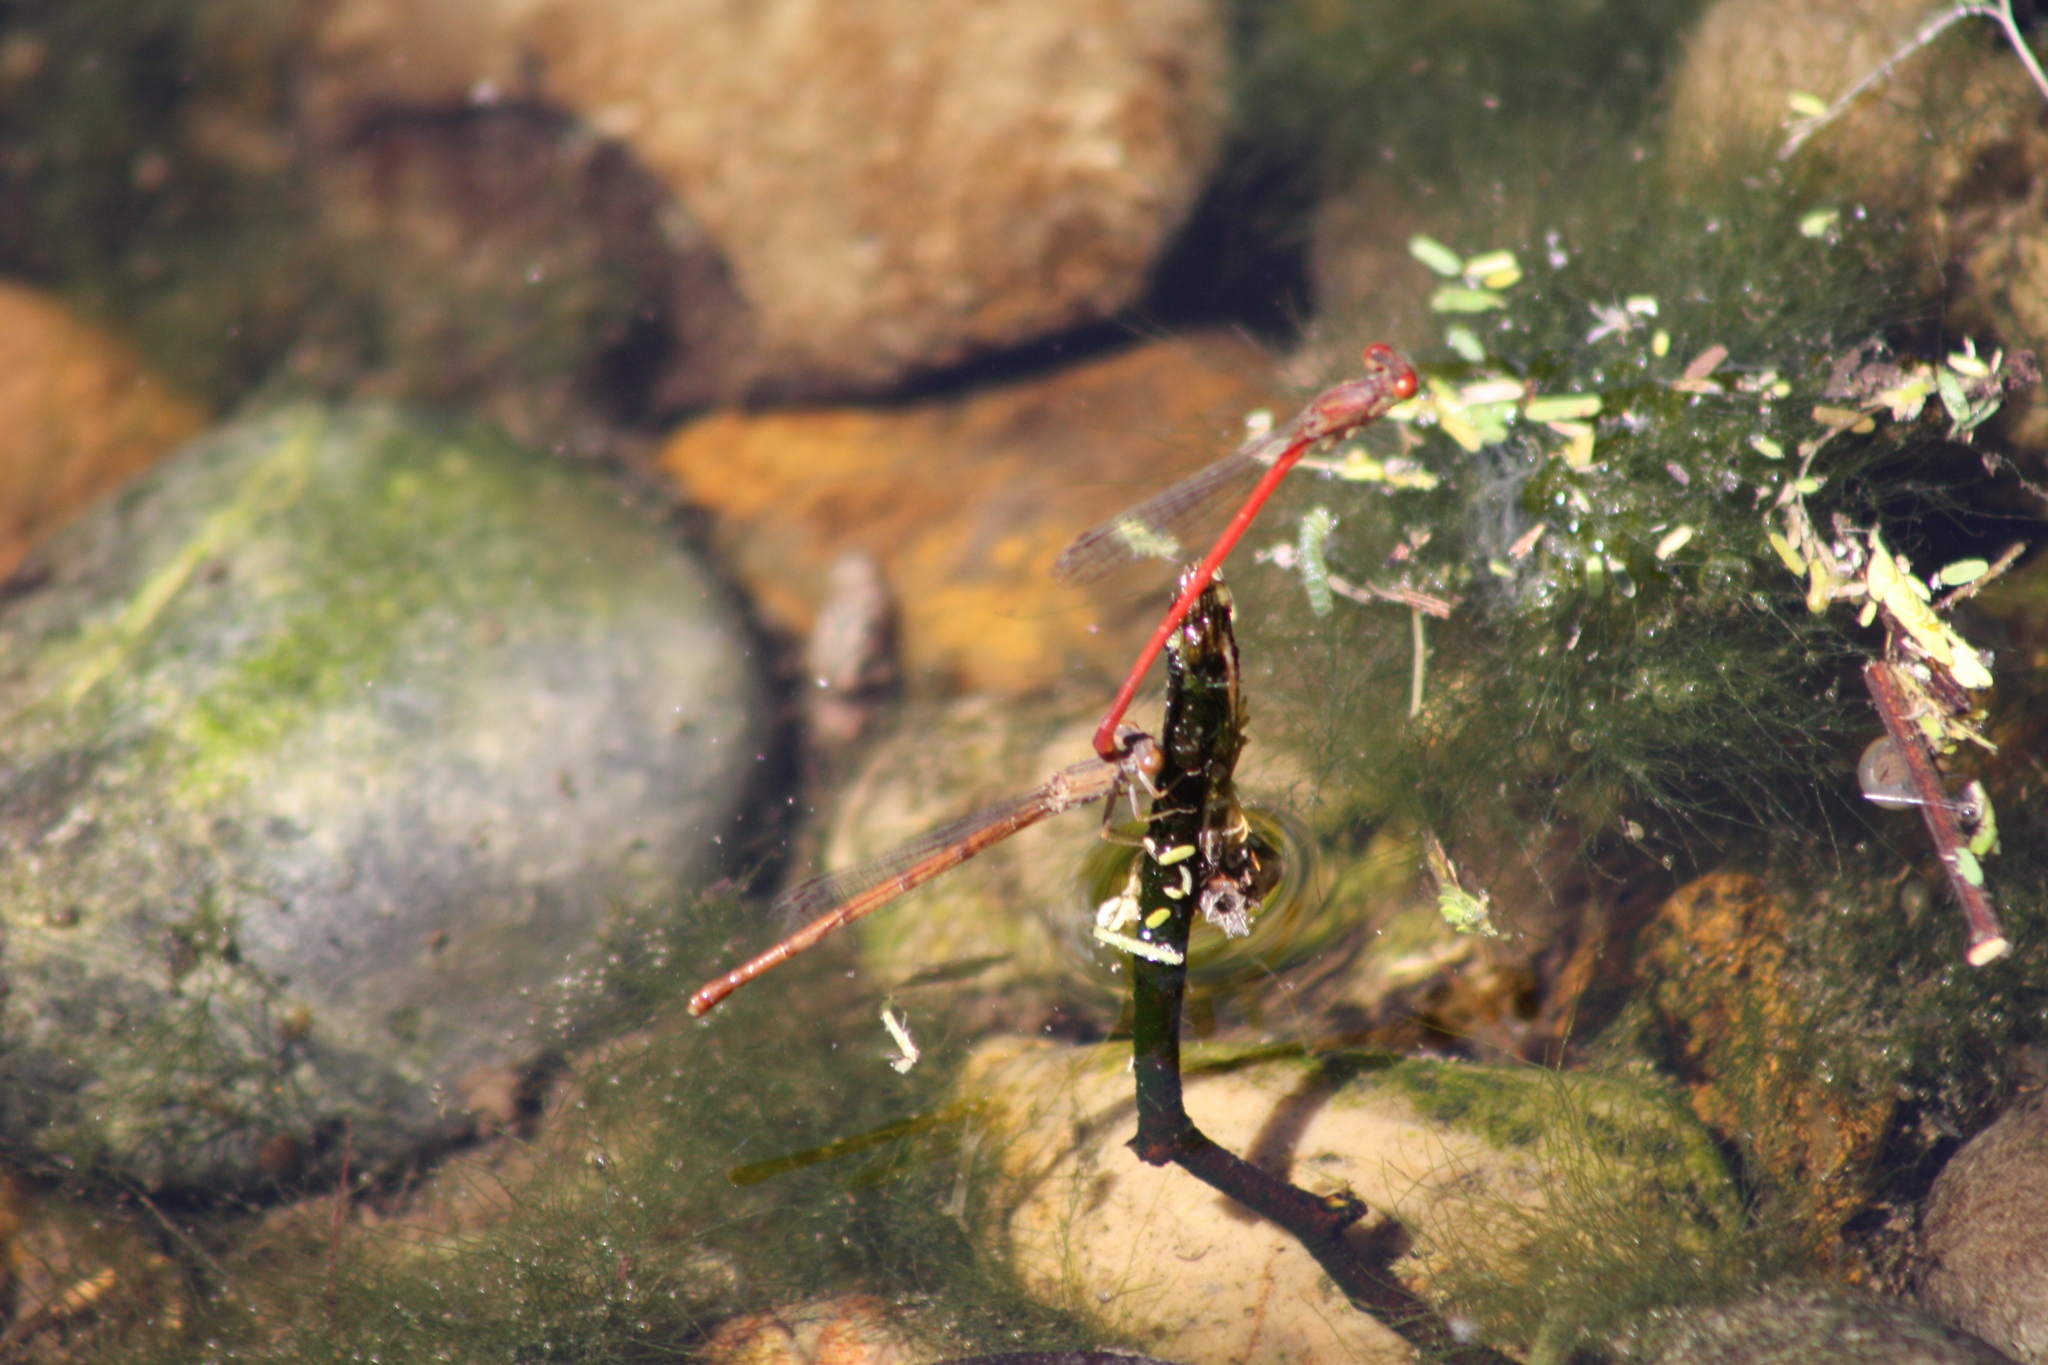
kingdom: Animalia
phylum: Arthropoda
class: Insecta
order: Odonata
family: Coenagrionidae
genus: Telebasis
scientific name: Telebasis salva
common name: Desert firetail
